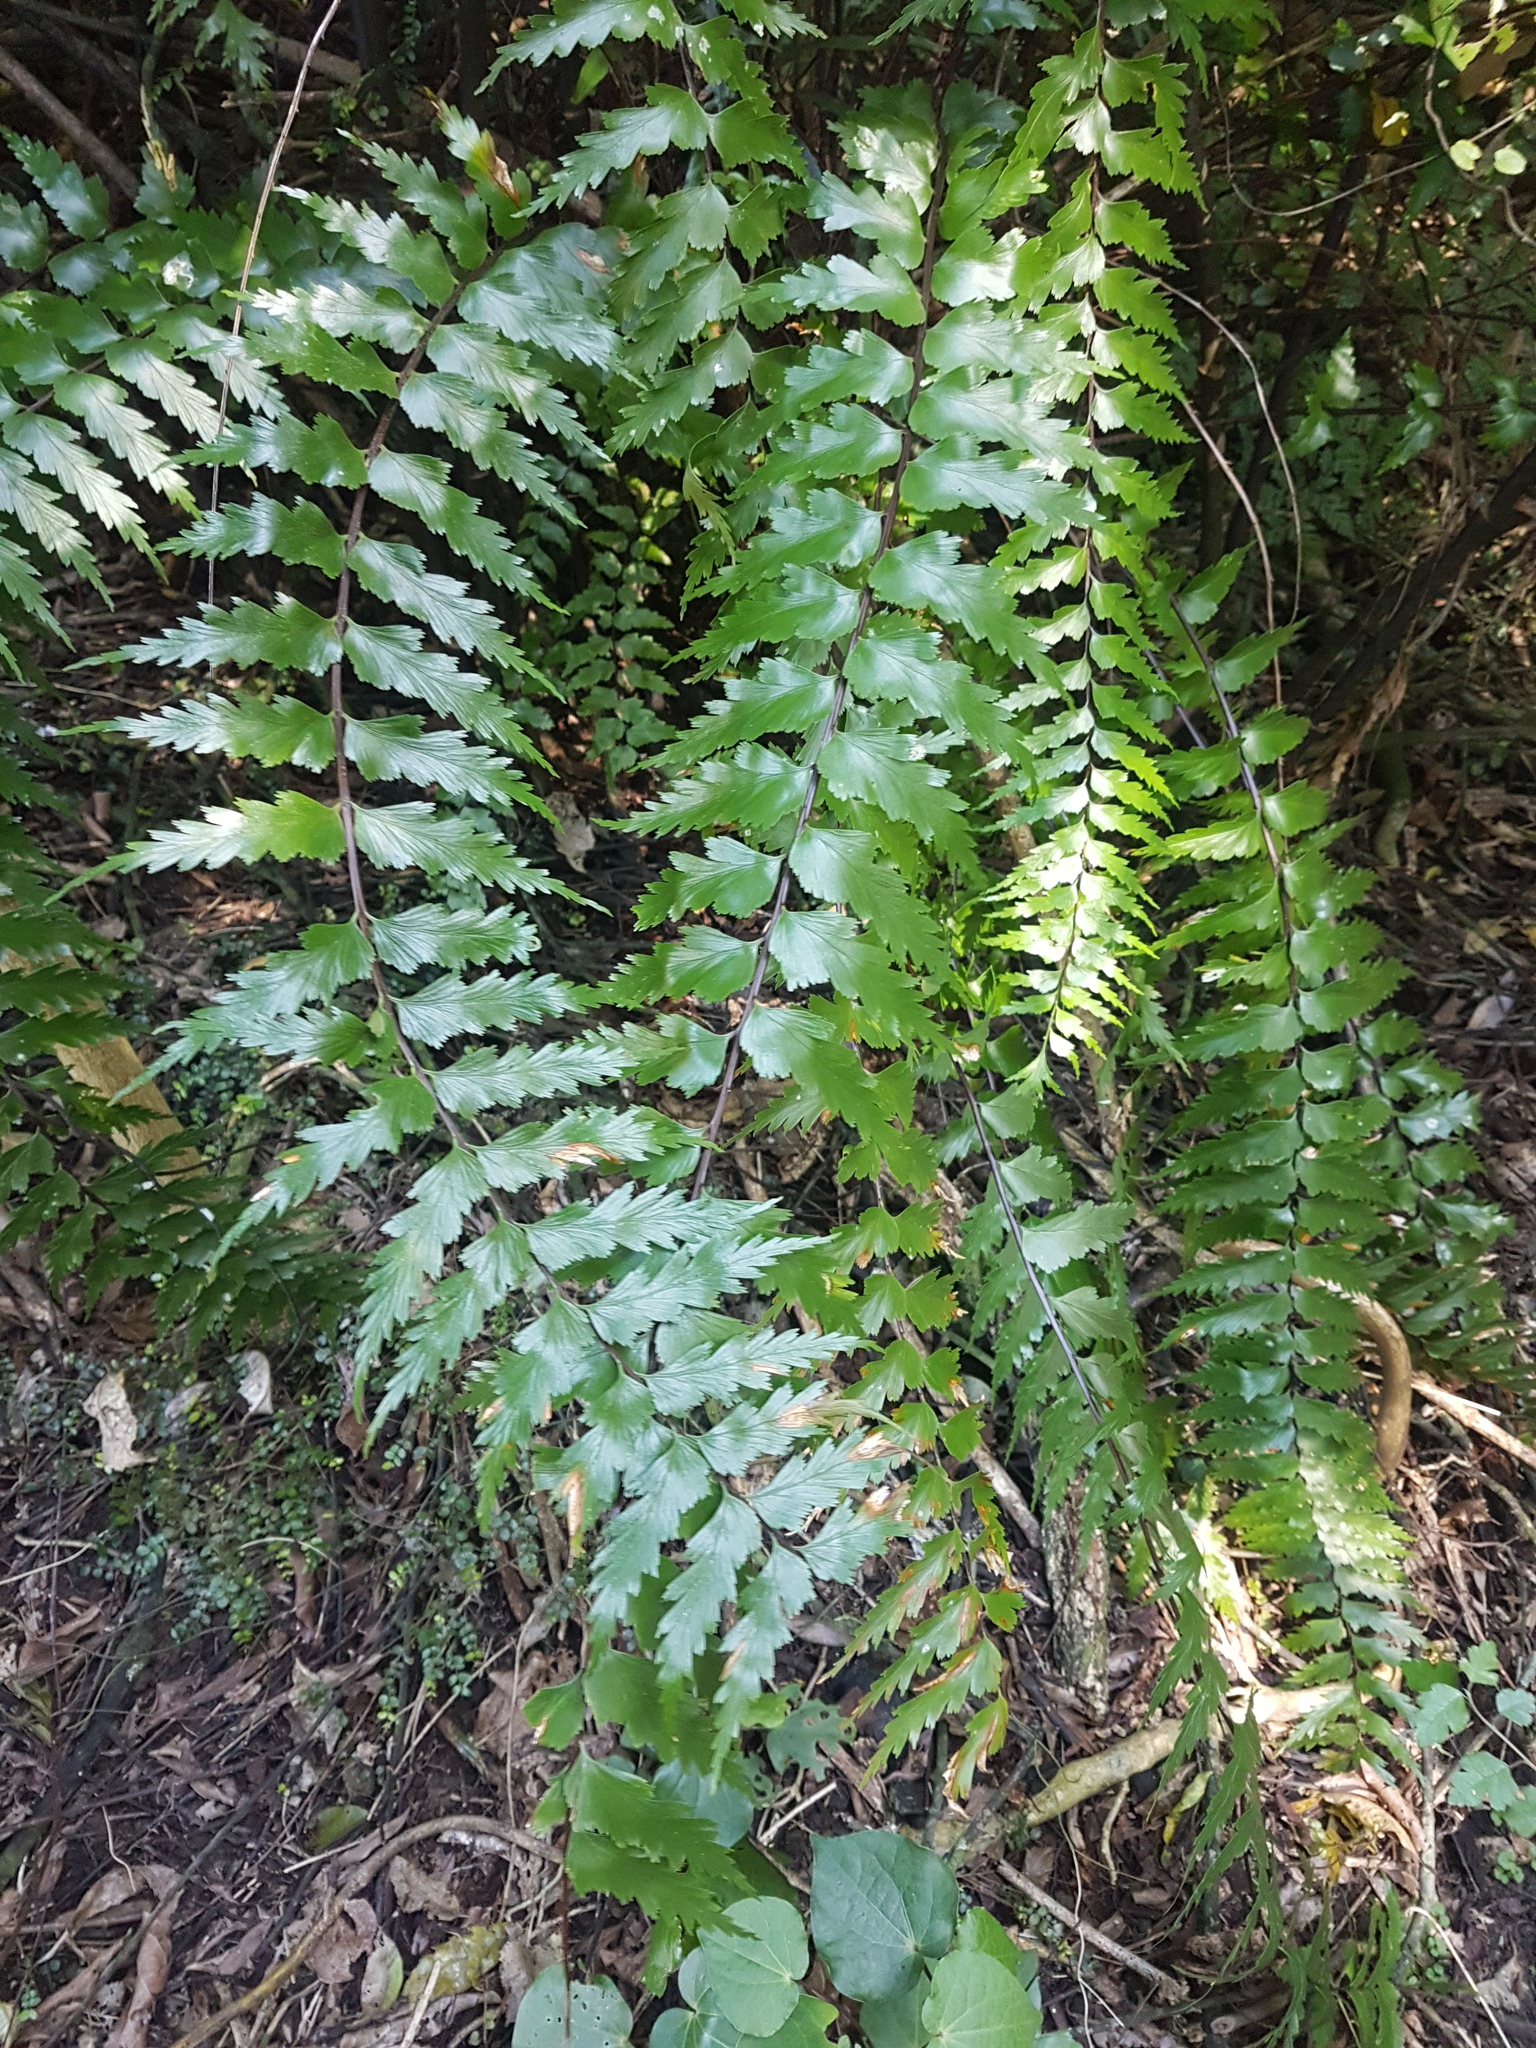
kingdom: Plantae
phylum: Tracheophyta
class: Polypodiopsida
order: Polypodiales
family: Aspleniaceae
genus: Asplenium
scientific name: Asplenium polyodon
